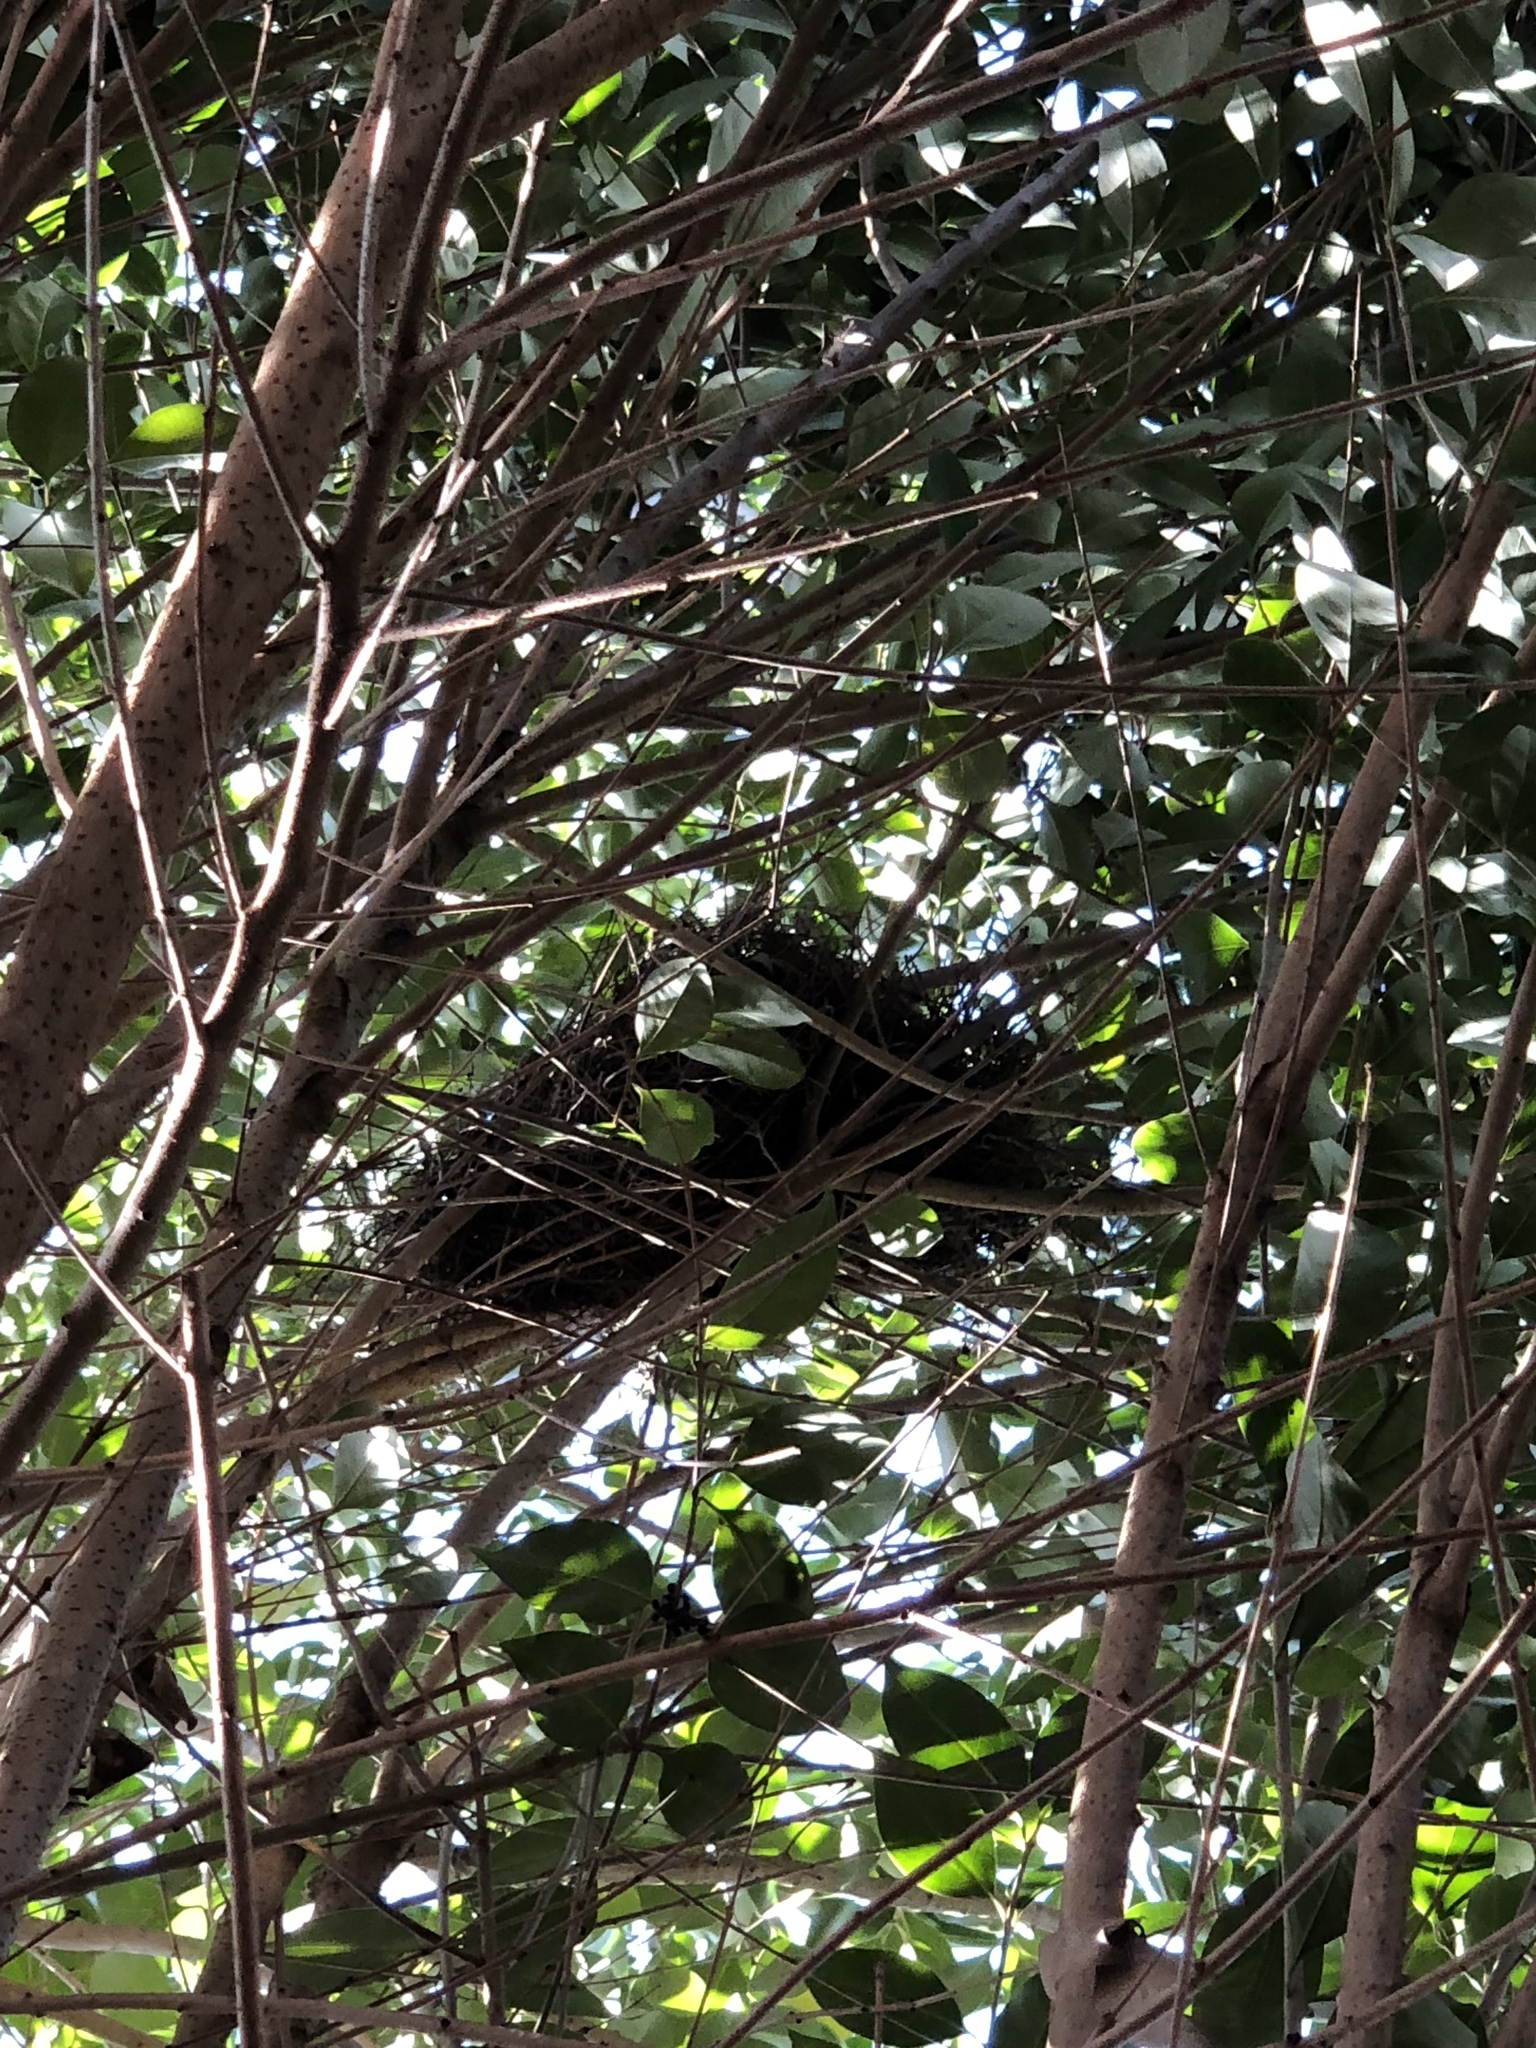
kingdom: Animalia
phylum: Chordata
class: Aves
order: Passeriformes
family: Pycnonotidae
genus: Pycnonotus
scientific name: Pycnonotus jocosus
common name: Red-whiskered bulbul
